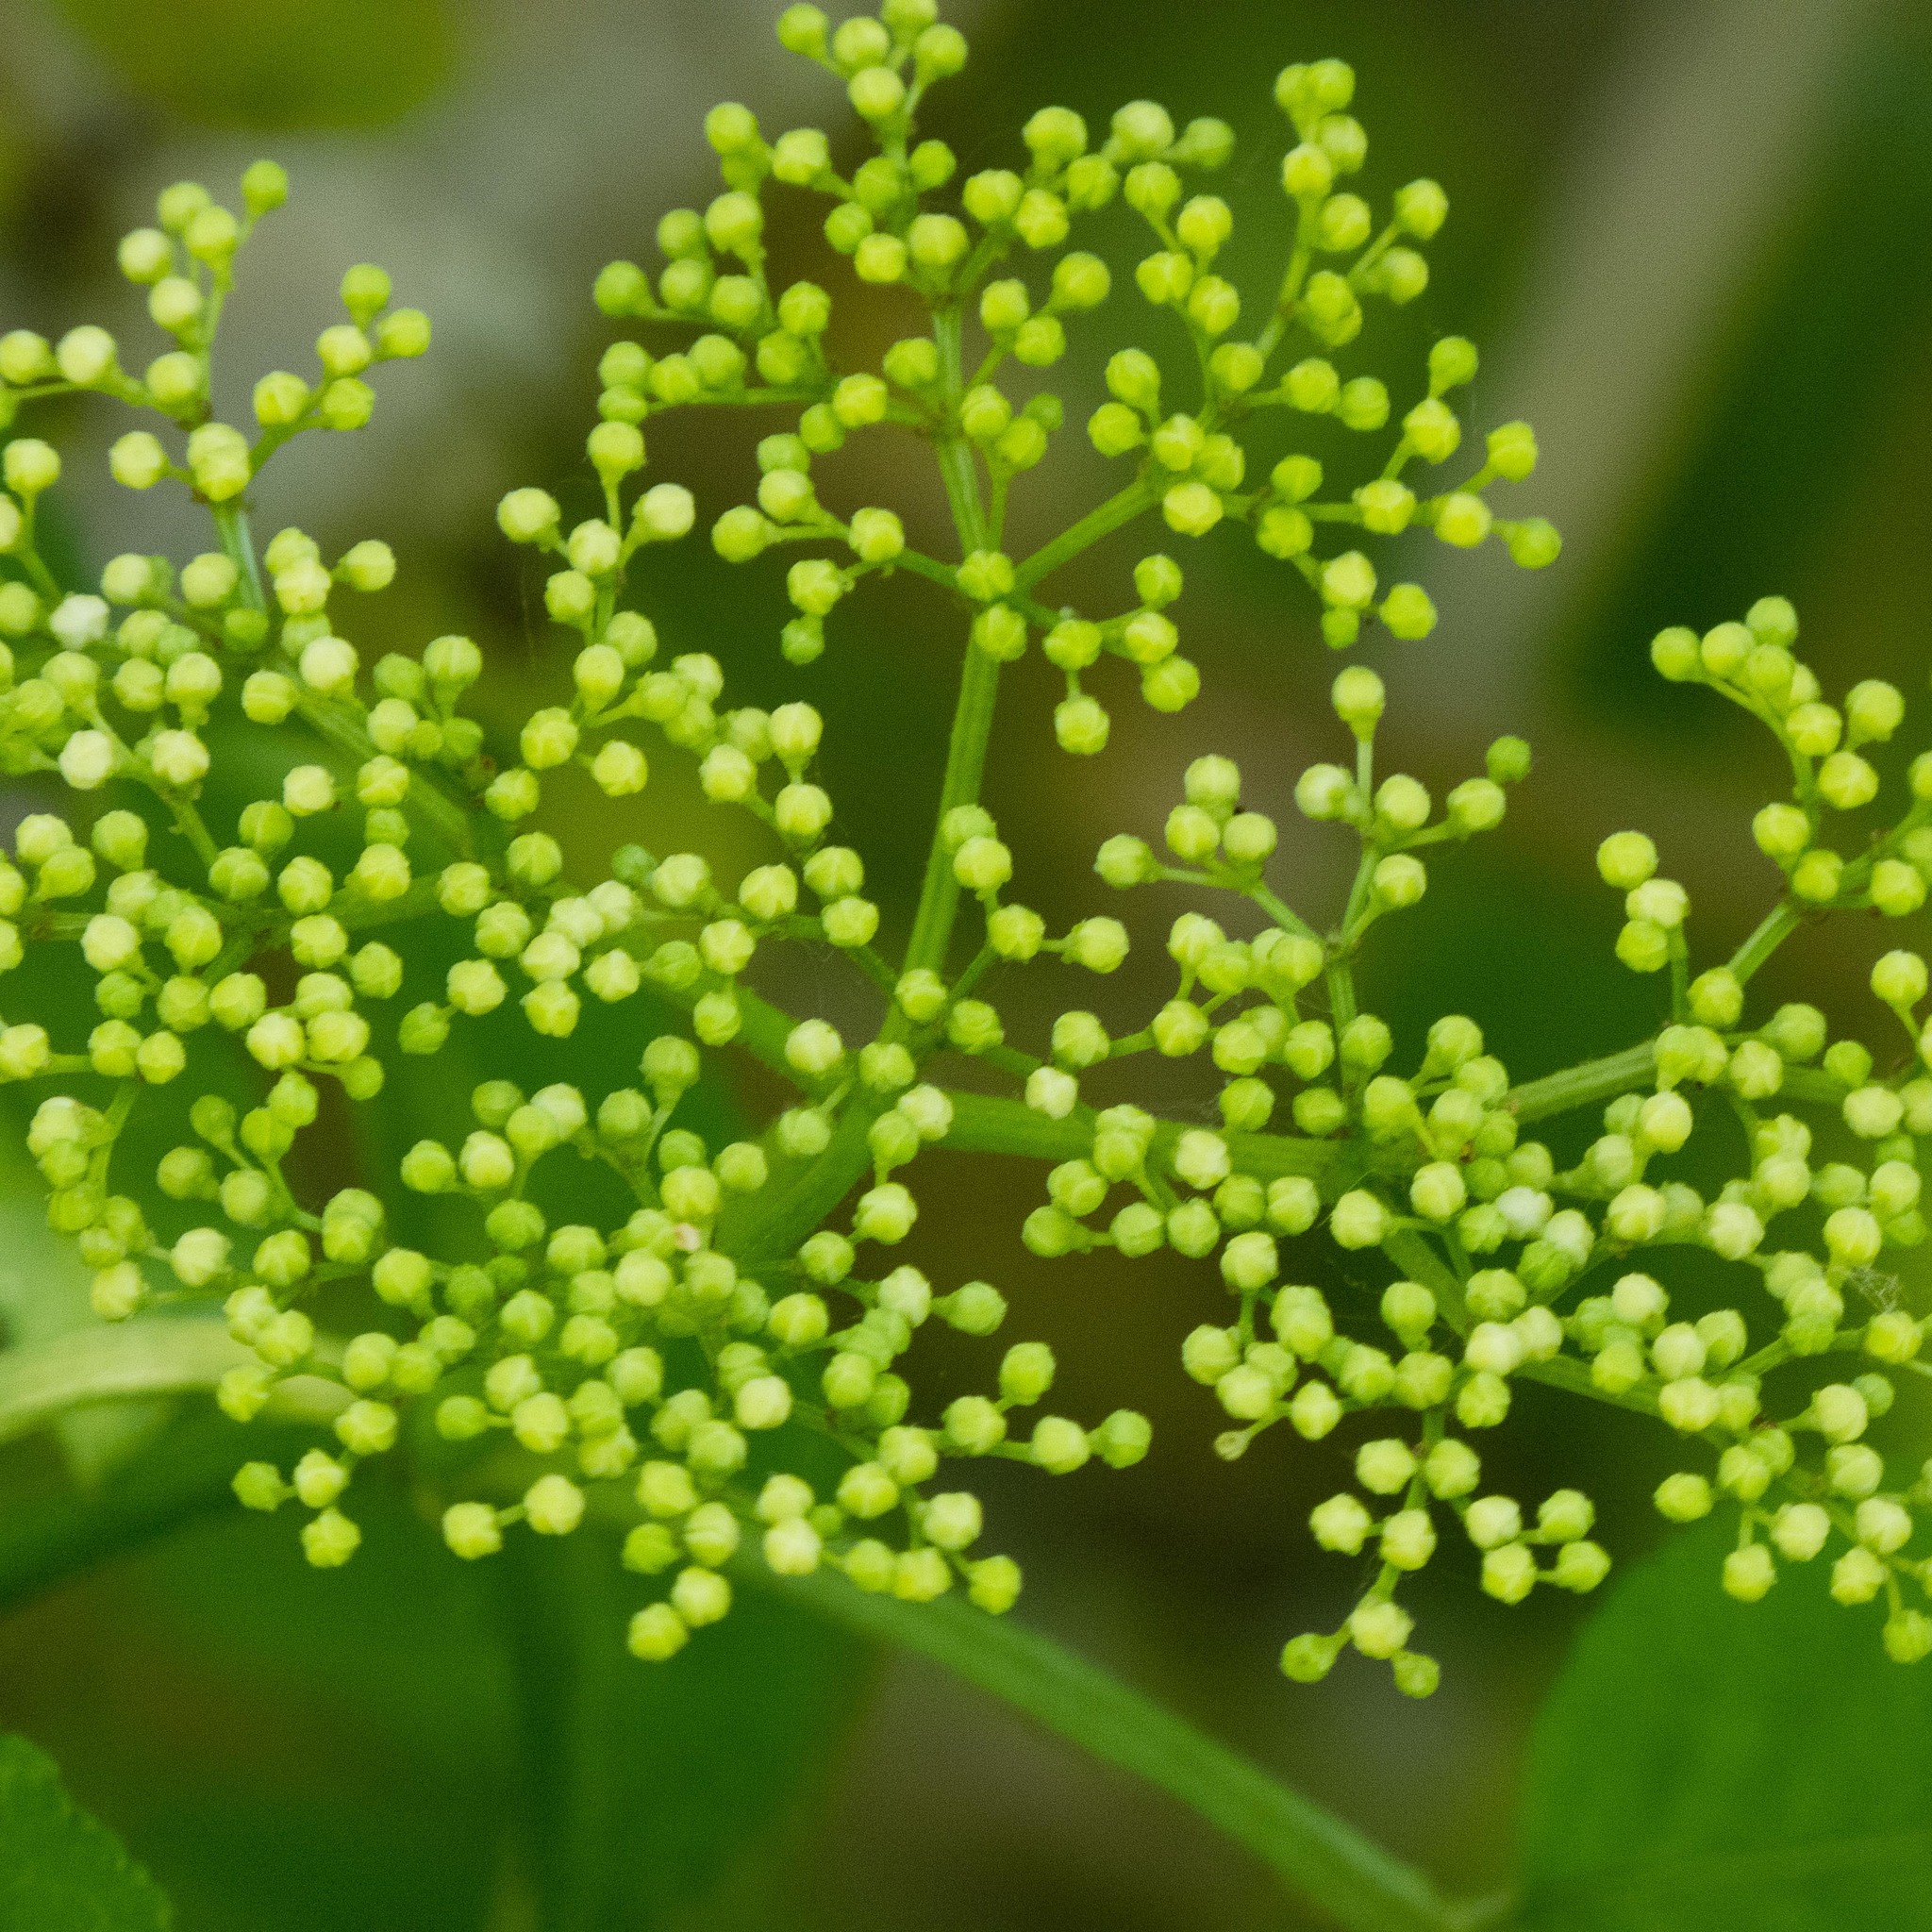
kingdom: Plantae
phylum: Tracheophyta
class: Magnoliopsida
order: Dipsacales
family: Viburnaceae
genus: Sambucus
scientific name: Sambucus nigra
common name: Elder
